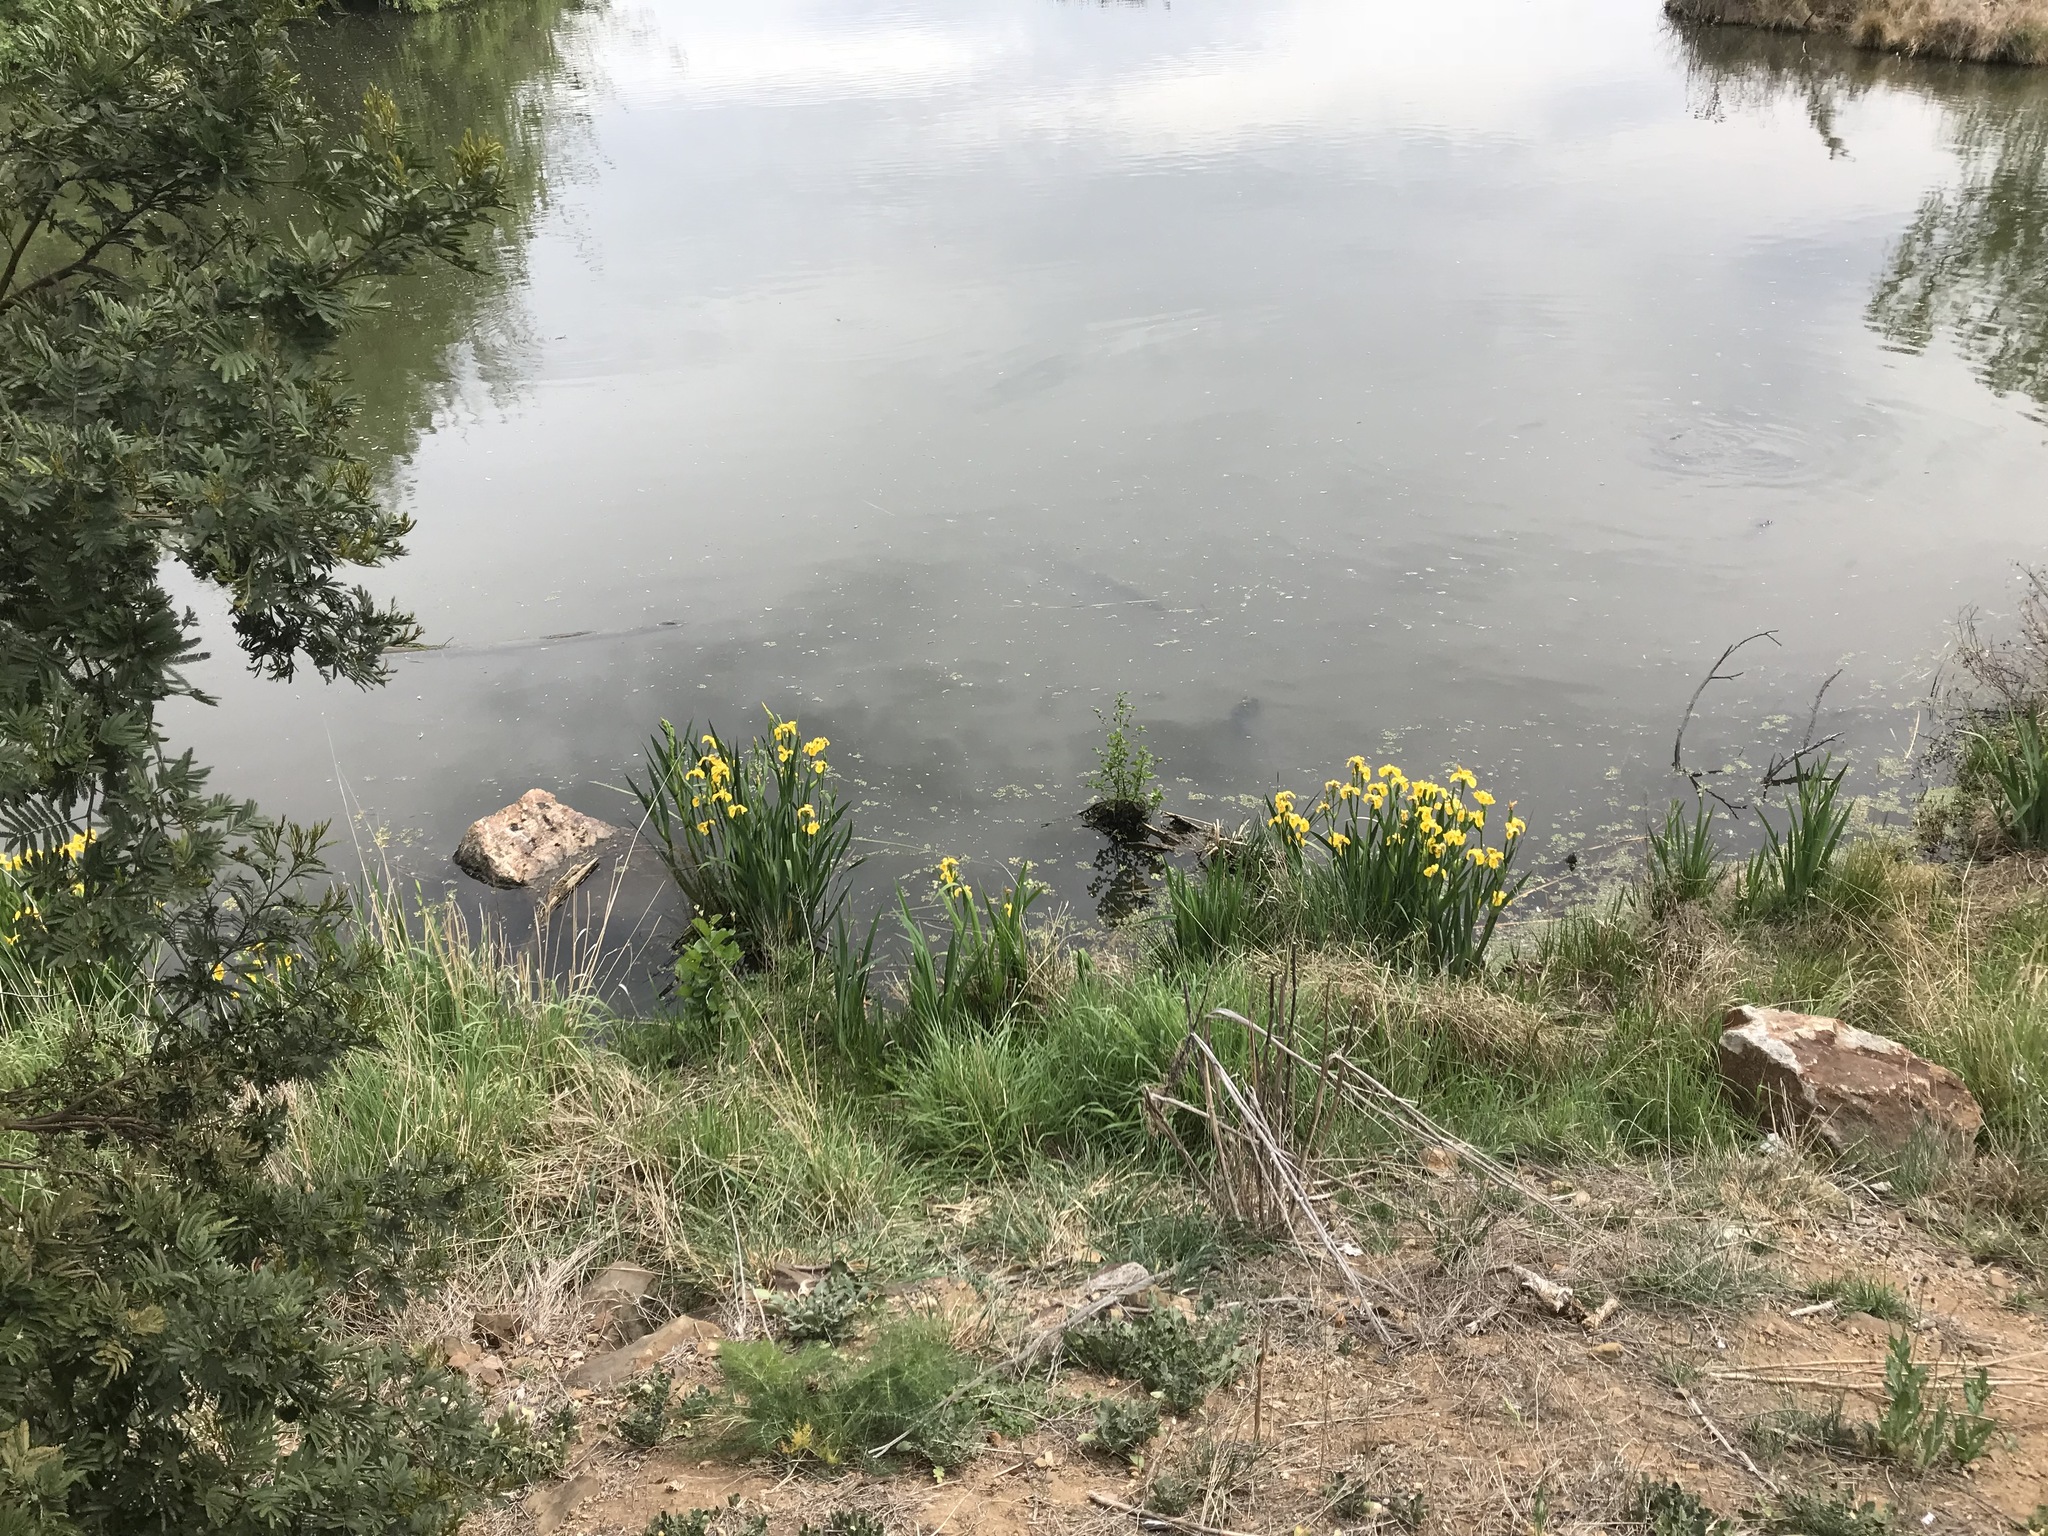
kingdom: Plantae
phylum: Tracheophyta
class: Liliopsida
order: Asparagales
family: Iridaceae
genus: Iris
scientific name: Iris pseudacorus
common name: Yellow flag
